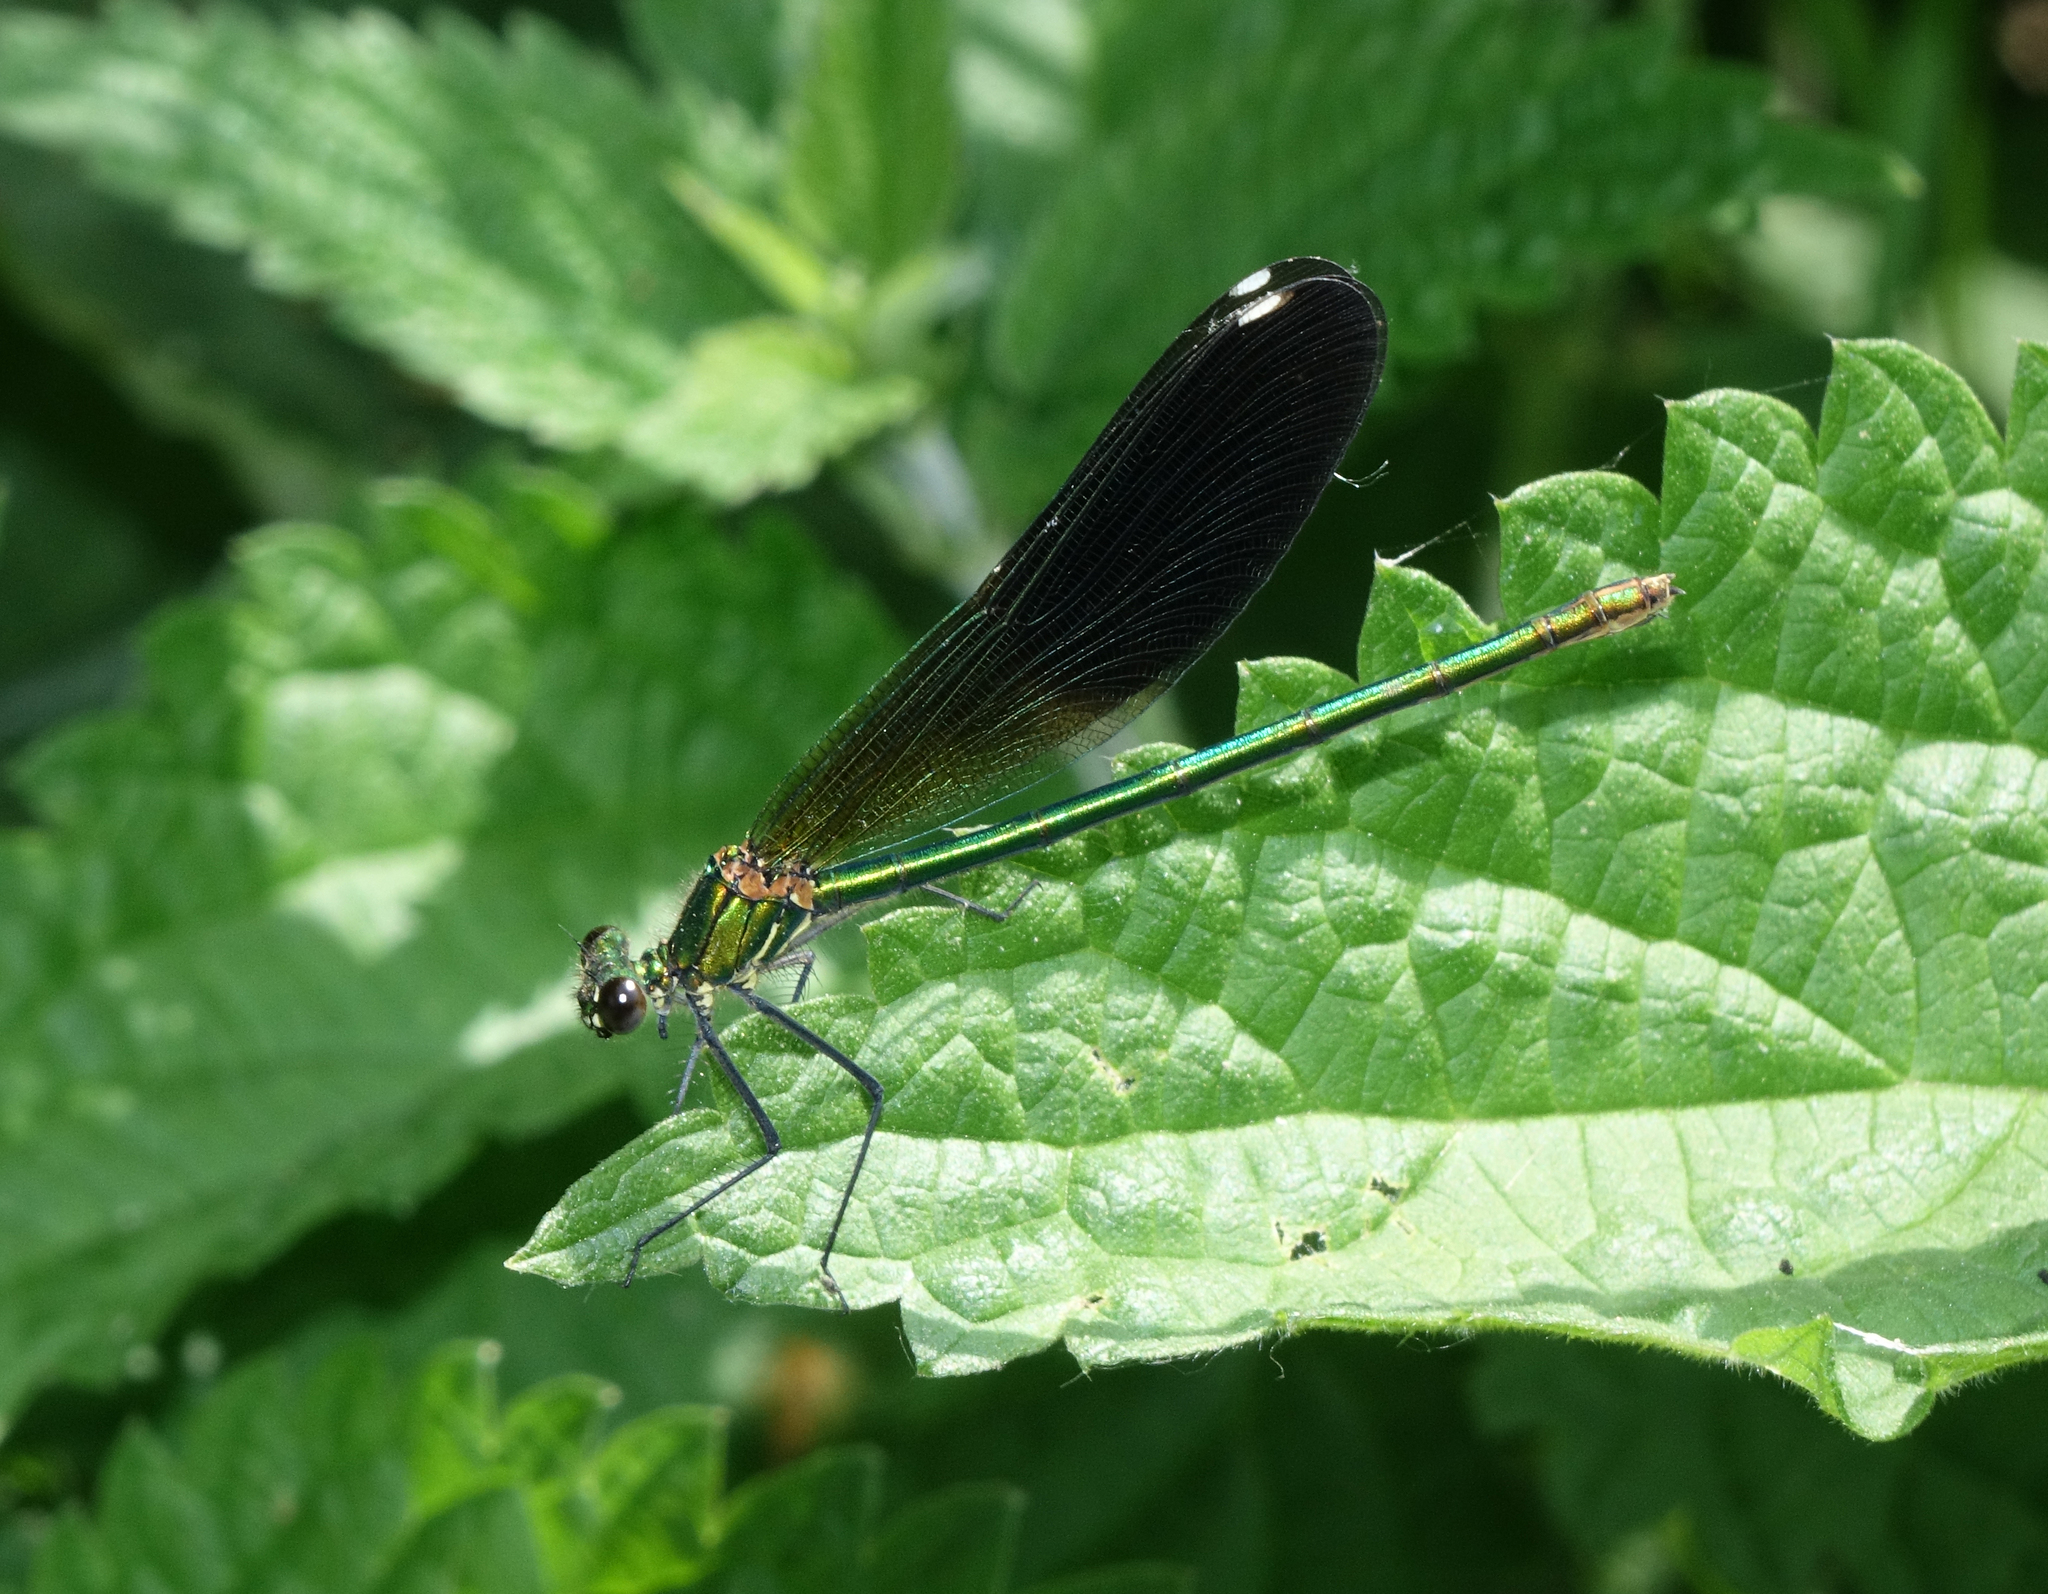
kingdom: Animalia
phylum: Arthropoda
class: Insecta
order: Odonata
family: Calopterygidae
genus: Calopteryx
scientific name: Calopteryx splendens
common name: Banded demoiselle
